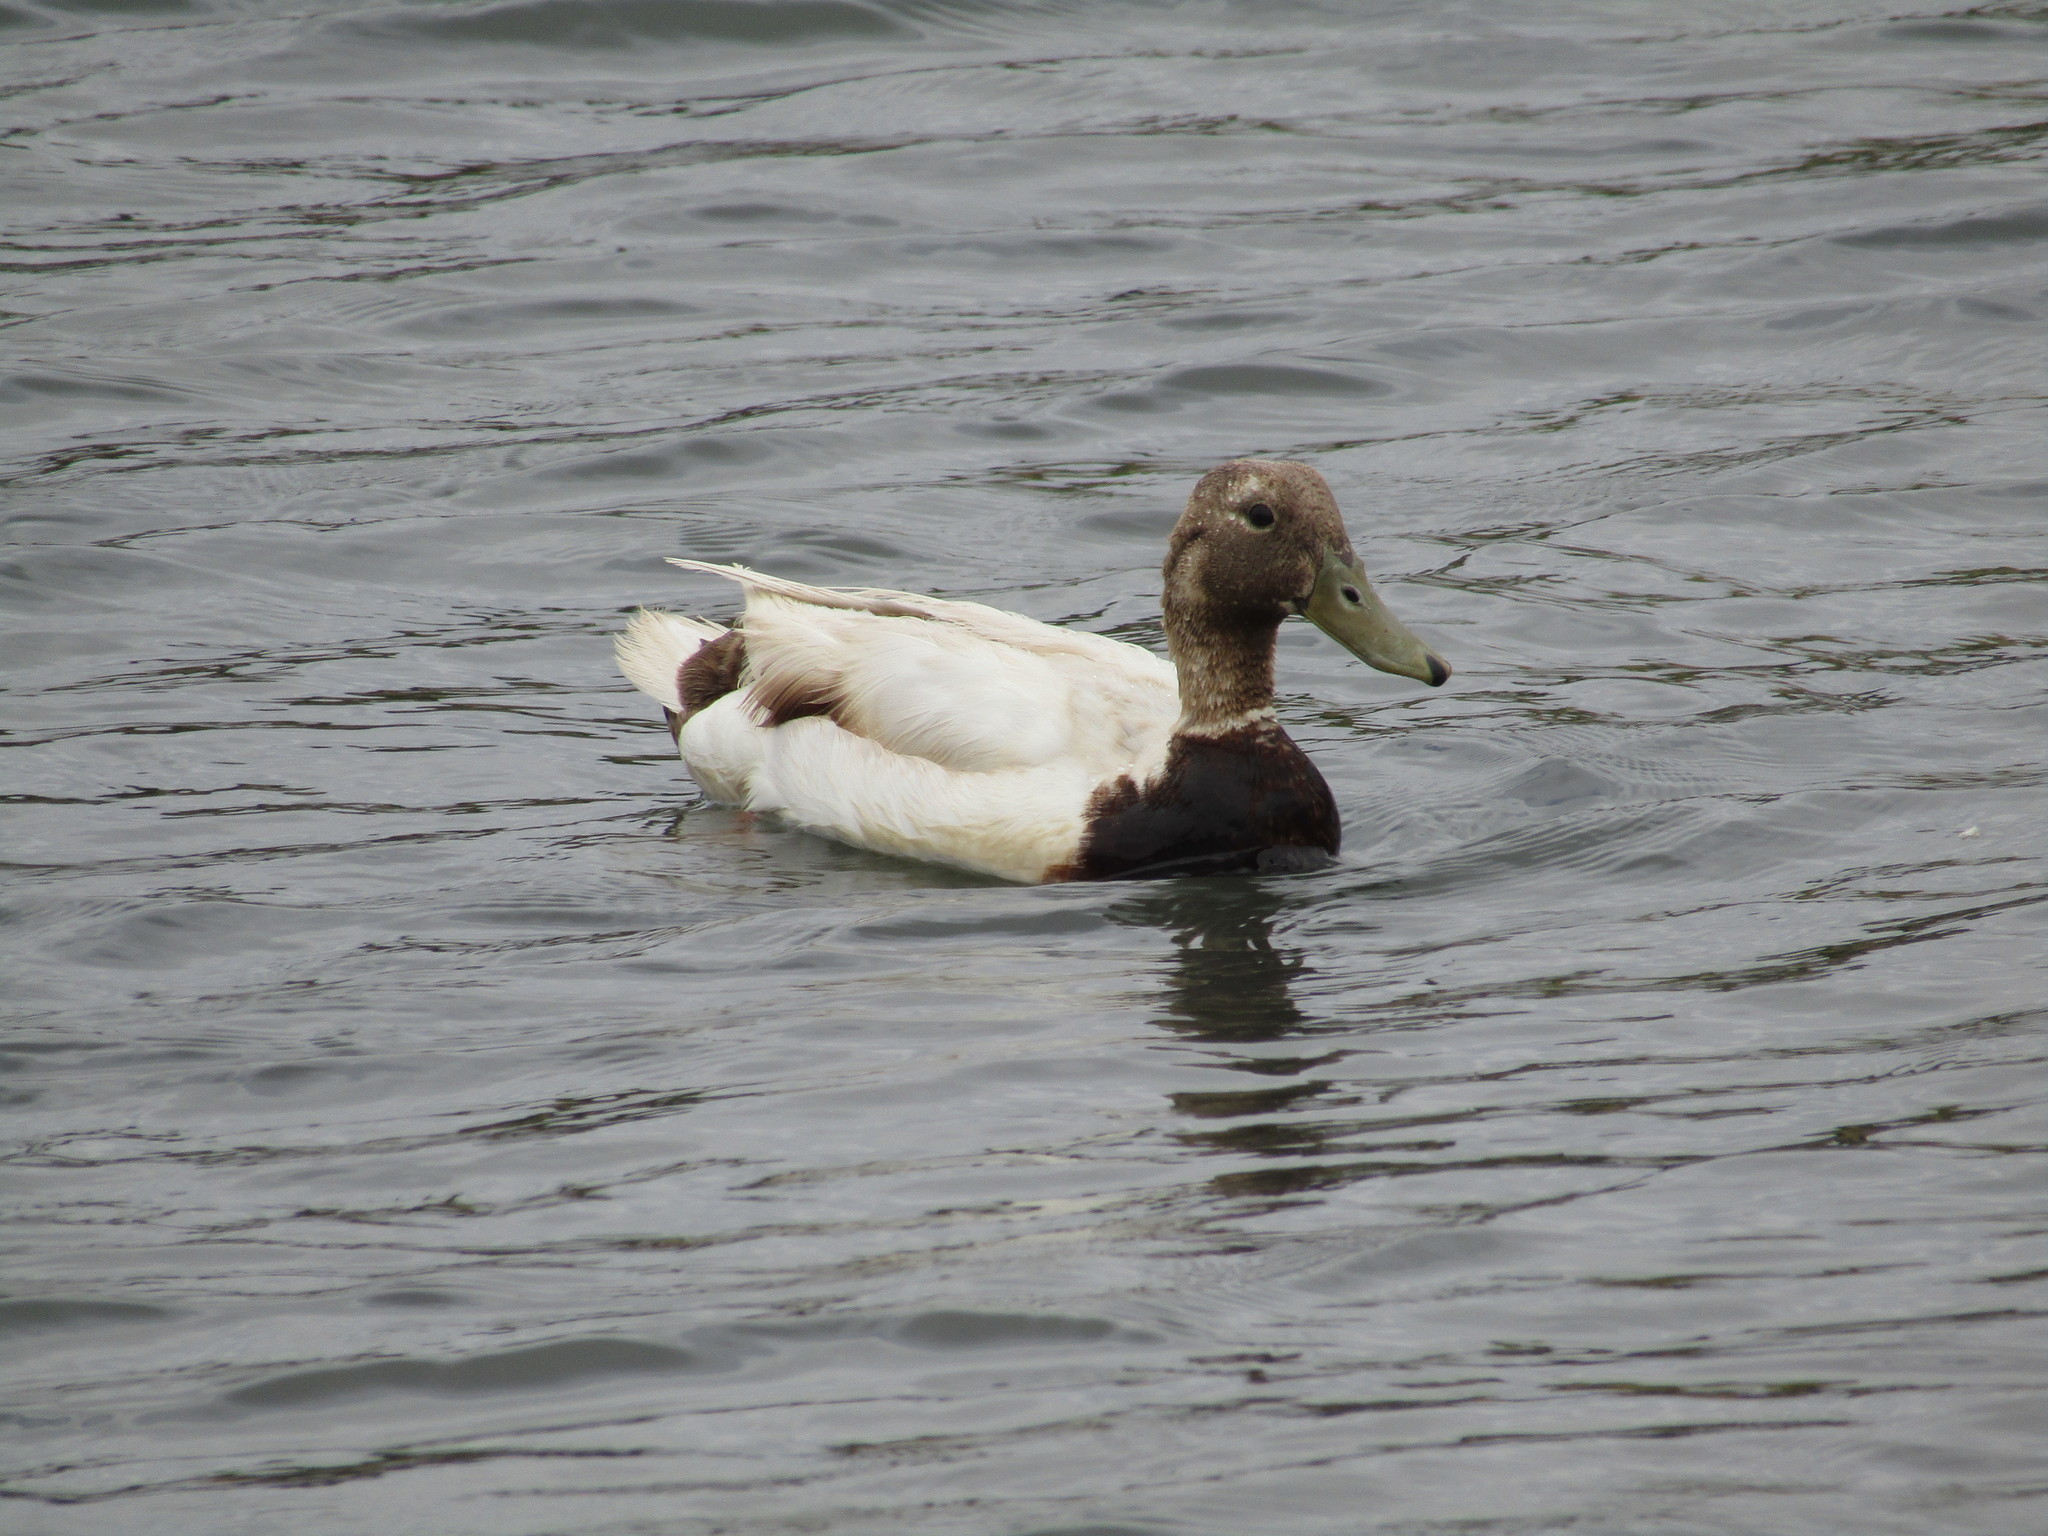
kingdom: Animalia
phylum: Chordata
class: Aves
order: Anseriformes
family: Anatidae
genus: Anas
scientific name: Anas platyrhynchos
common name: Mallard
